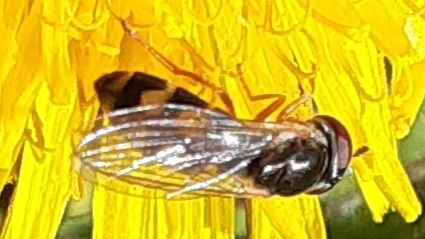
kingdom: Animalia
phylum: Arthropoda
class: Insecta
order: Diptera
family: Syrphidae
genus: Melanostoma
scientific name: Melanostoma mellina
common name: Hover fly
